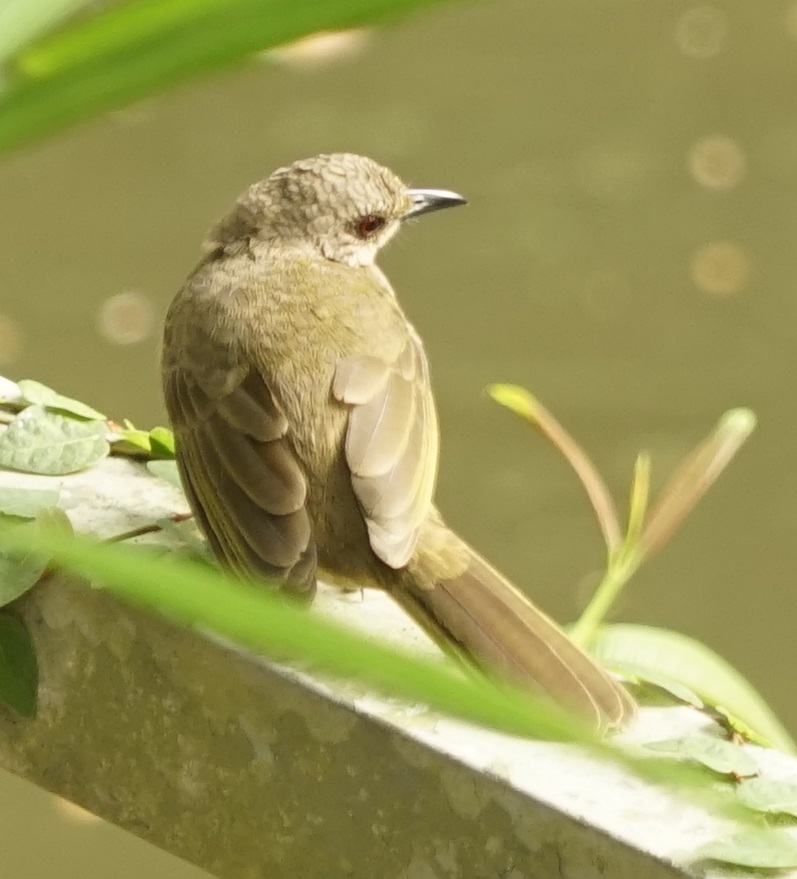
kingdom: Animalia
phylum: Chordata
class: Aves
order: Passeriformes
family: Pycnonotidae
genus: Pycnonotus
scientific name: Pycnonotus plumosus
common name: Olive-winged bulbul
